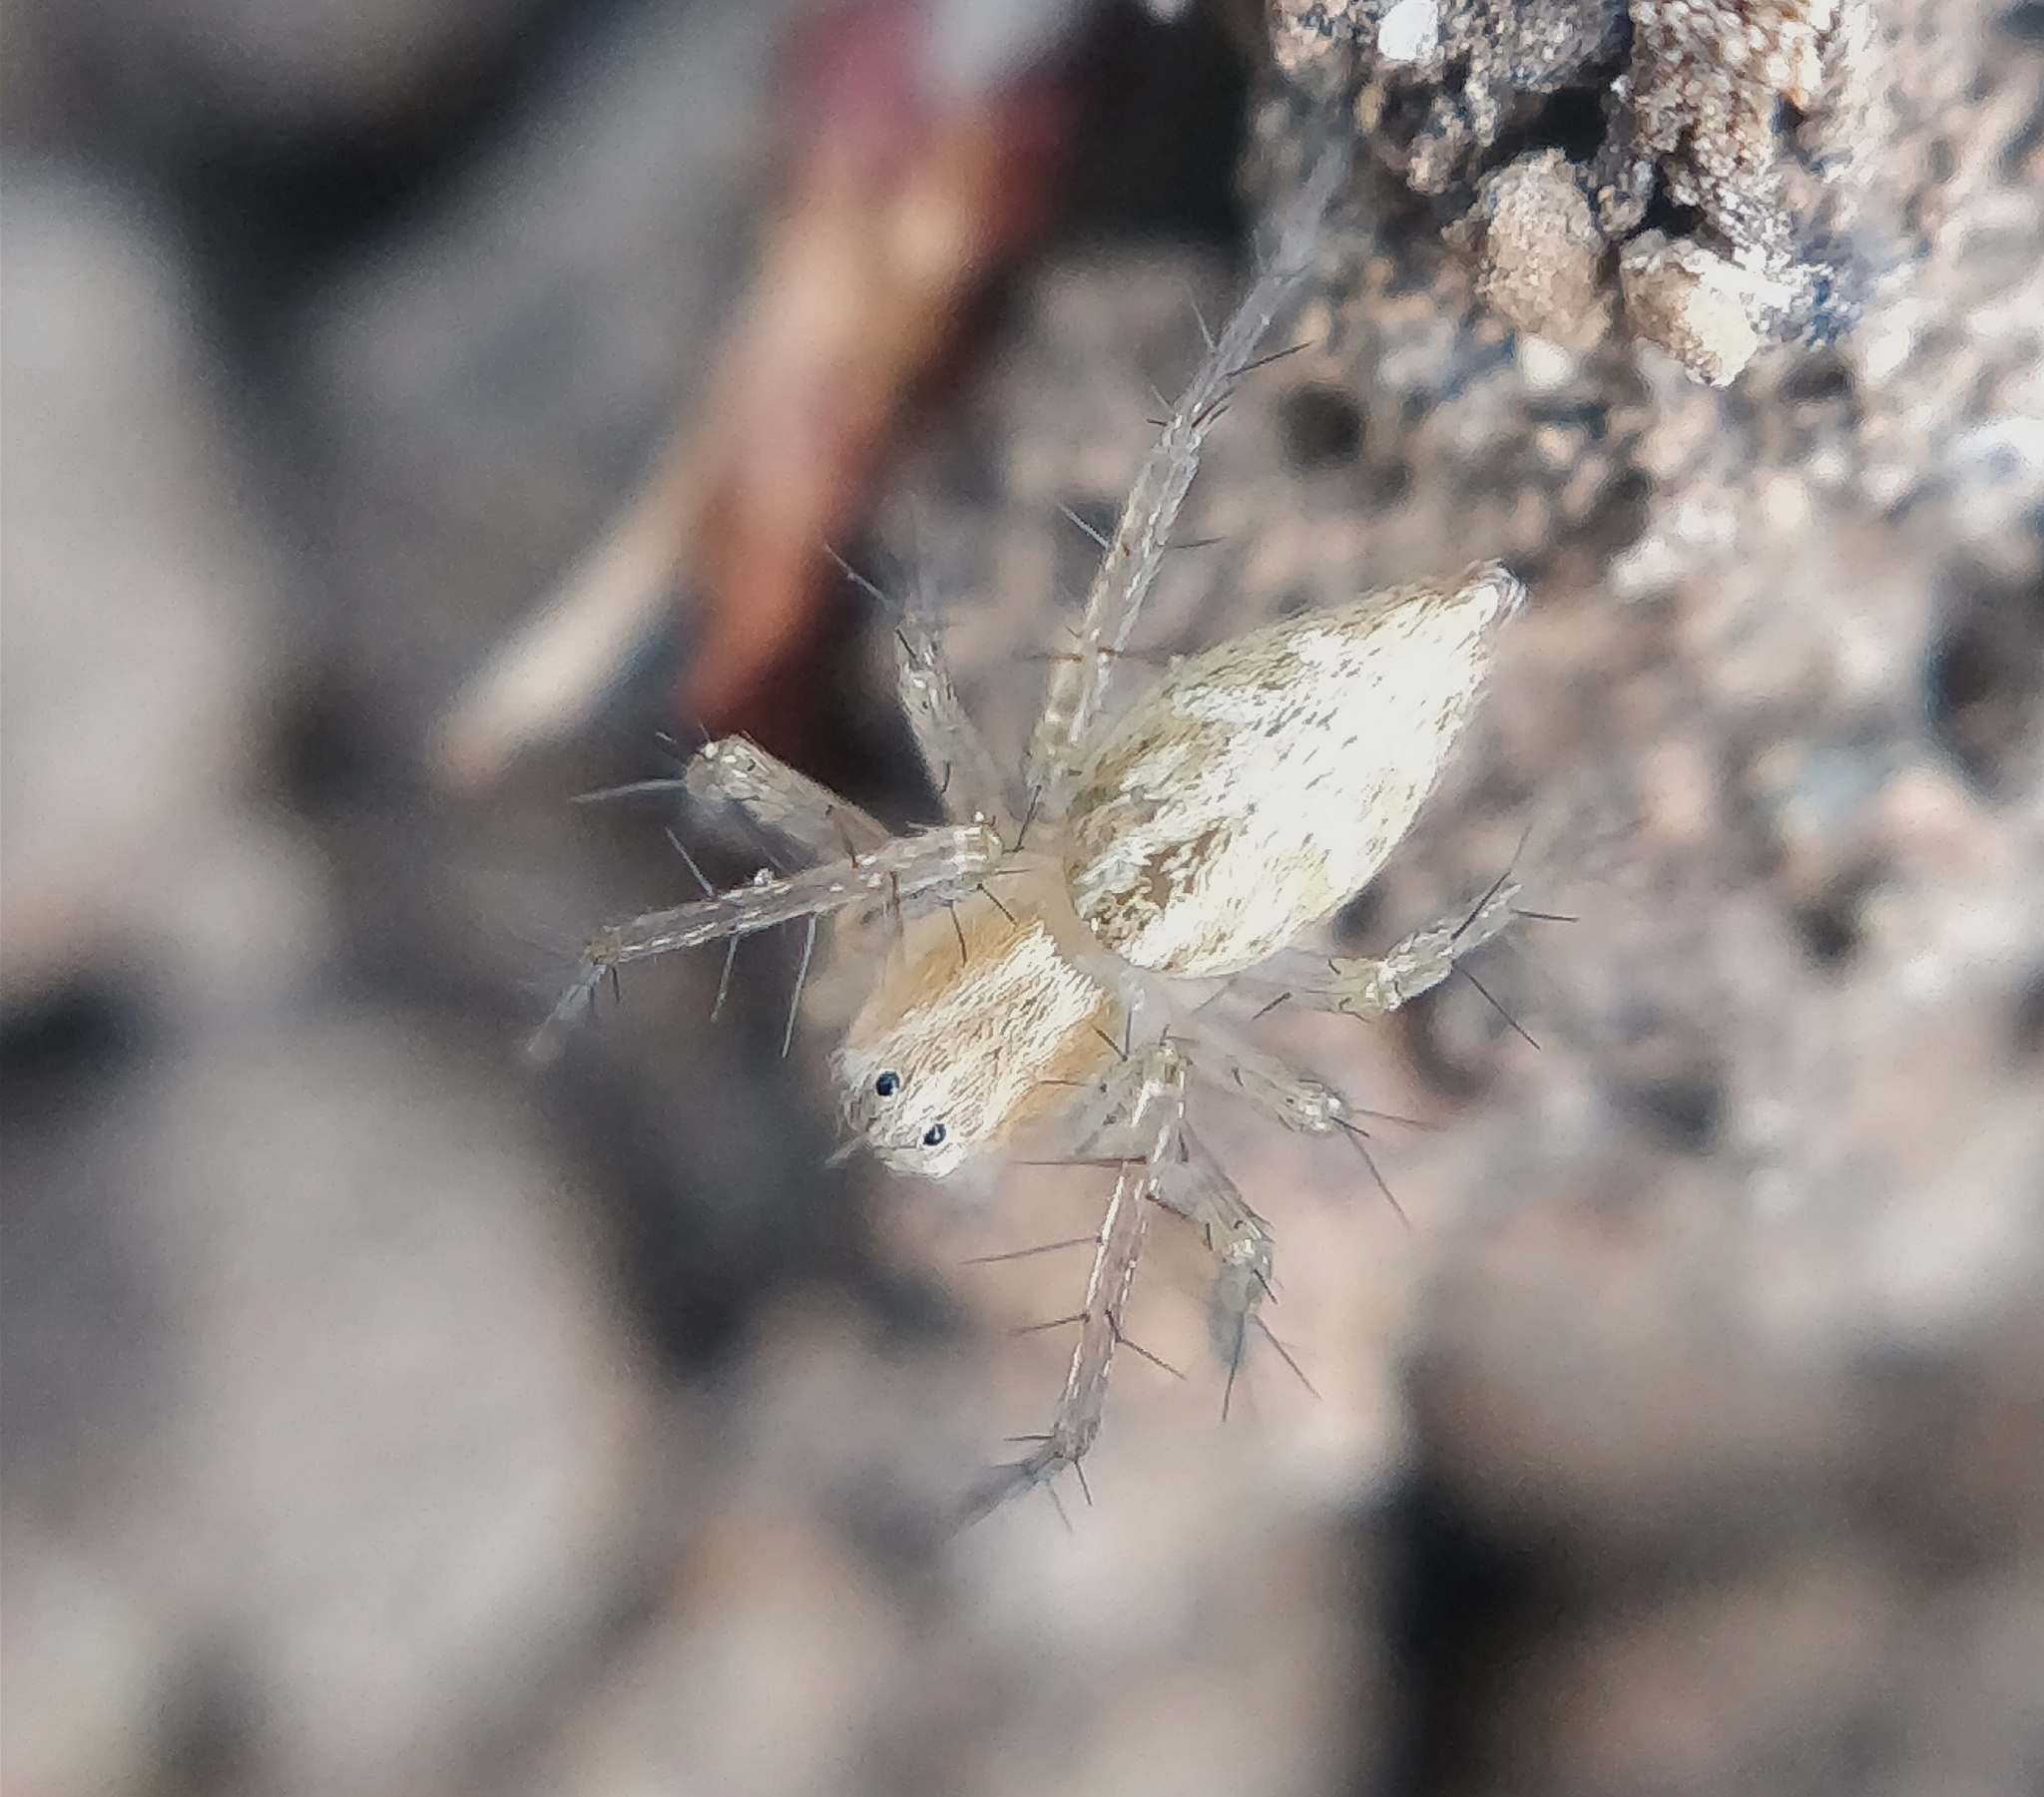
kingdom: Animalia
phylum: Arthropoda
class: Arachnida
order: Araneae
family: Oxyopidae
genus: Oxyopes
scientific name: Oxyopes kraepelinorum
